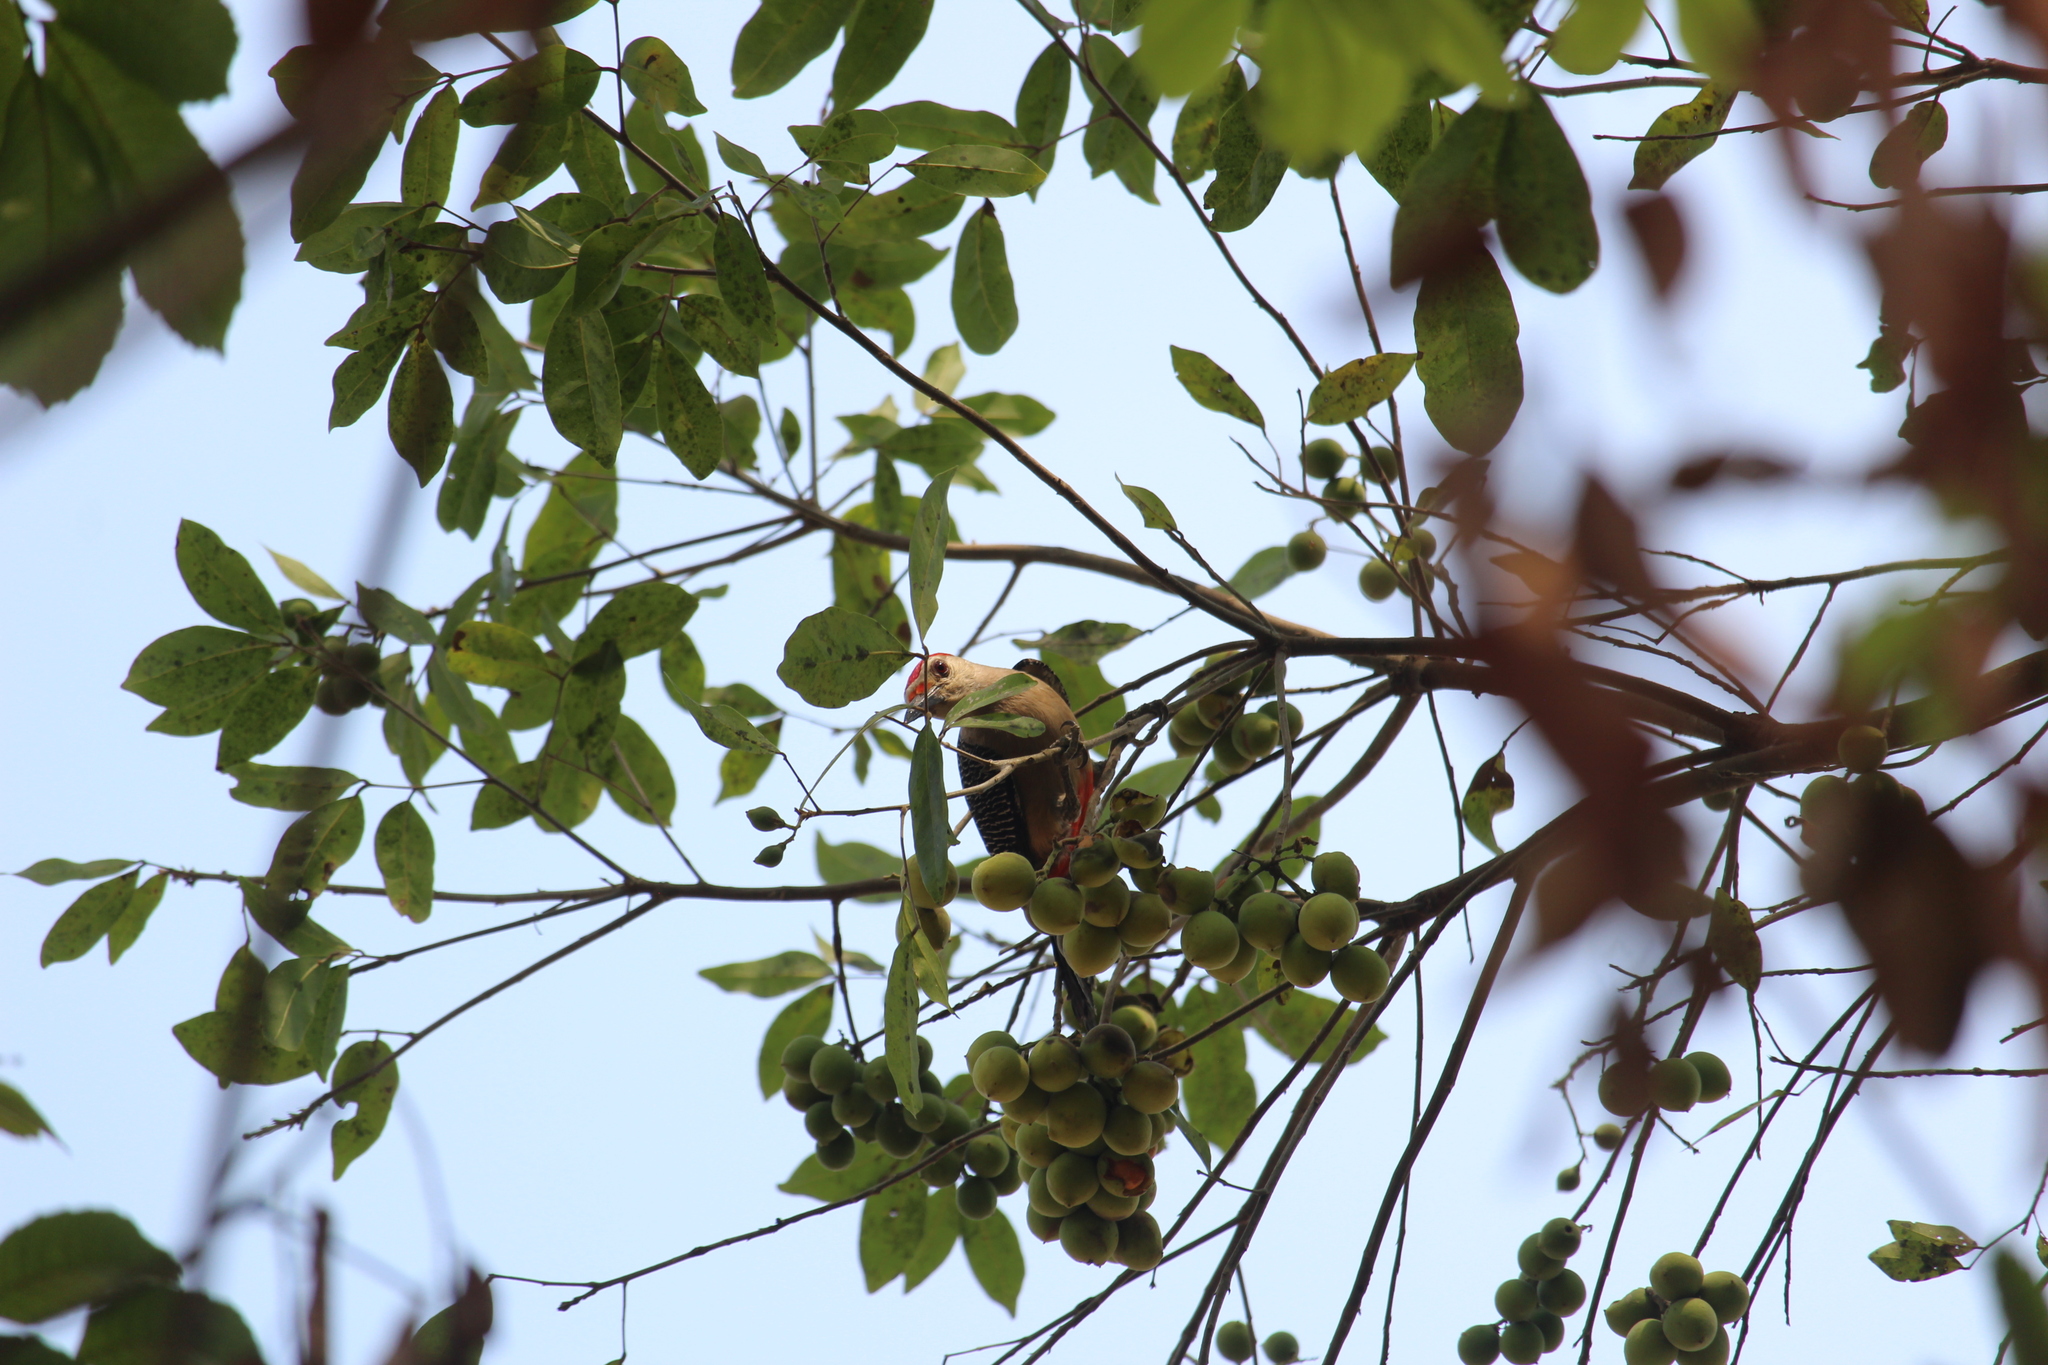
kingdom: Animalia
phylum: Chordata
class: Aves
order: Piciformes
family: Picidae
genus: Melanerpes
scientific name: Melanerpes aurifrons
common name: Golden-fronted woodpecker
